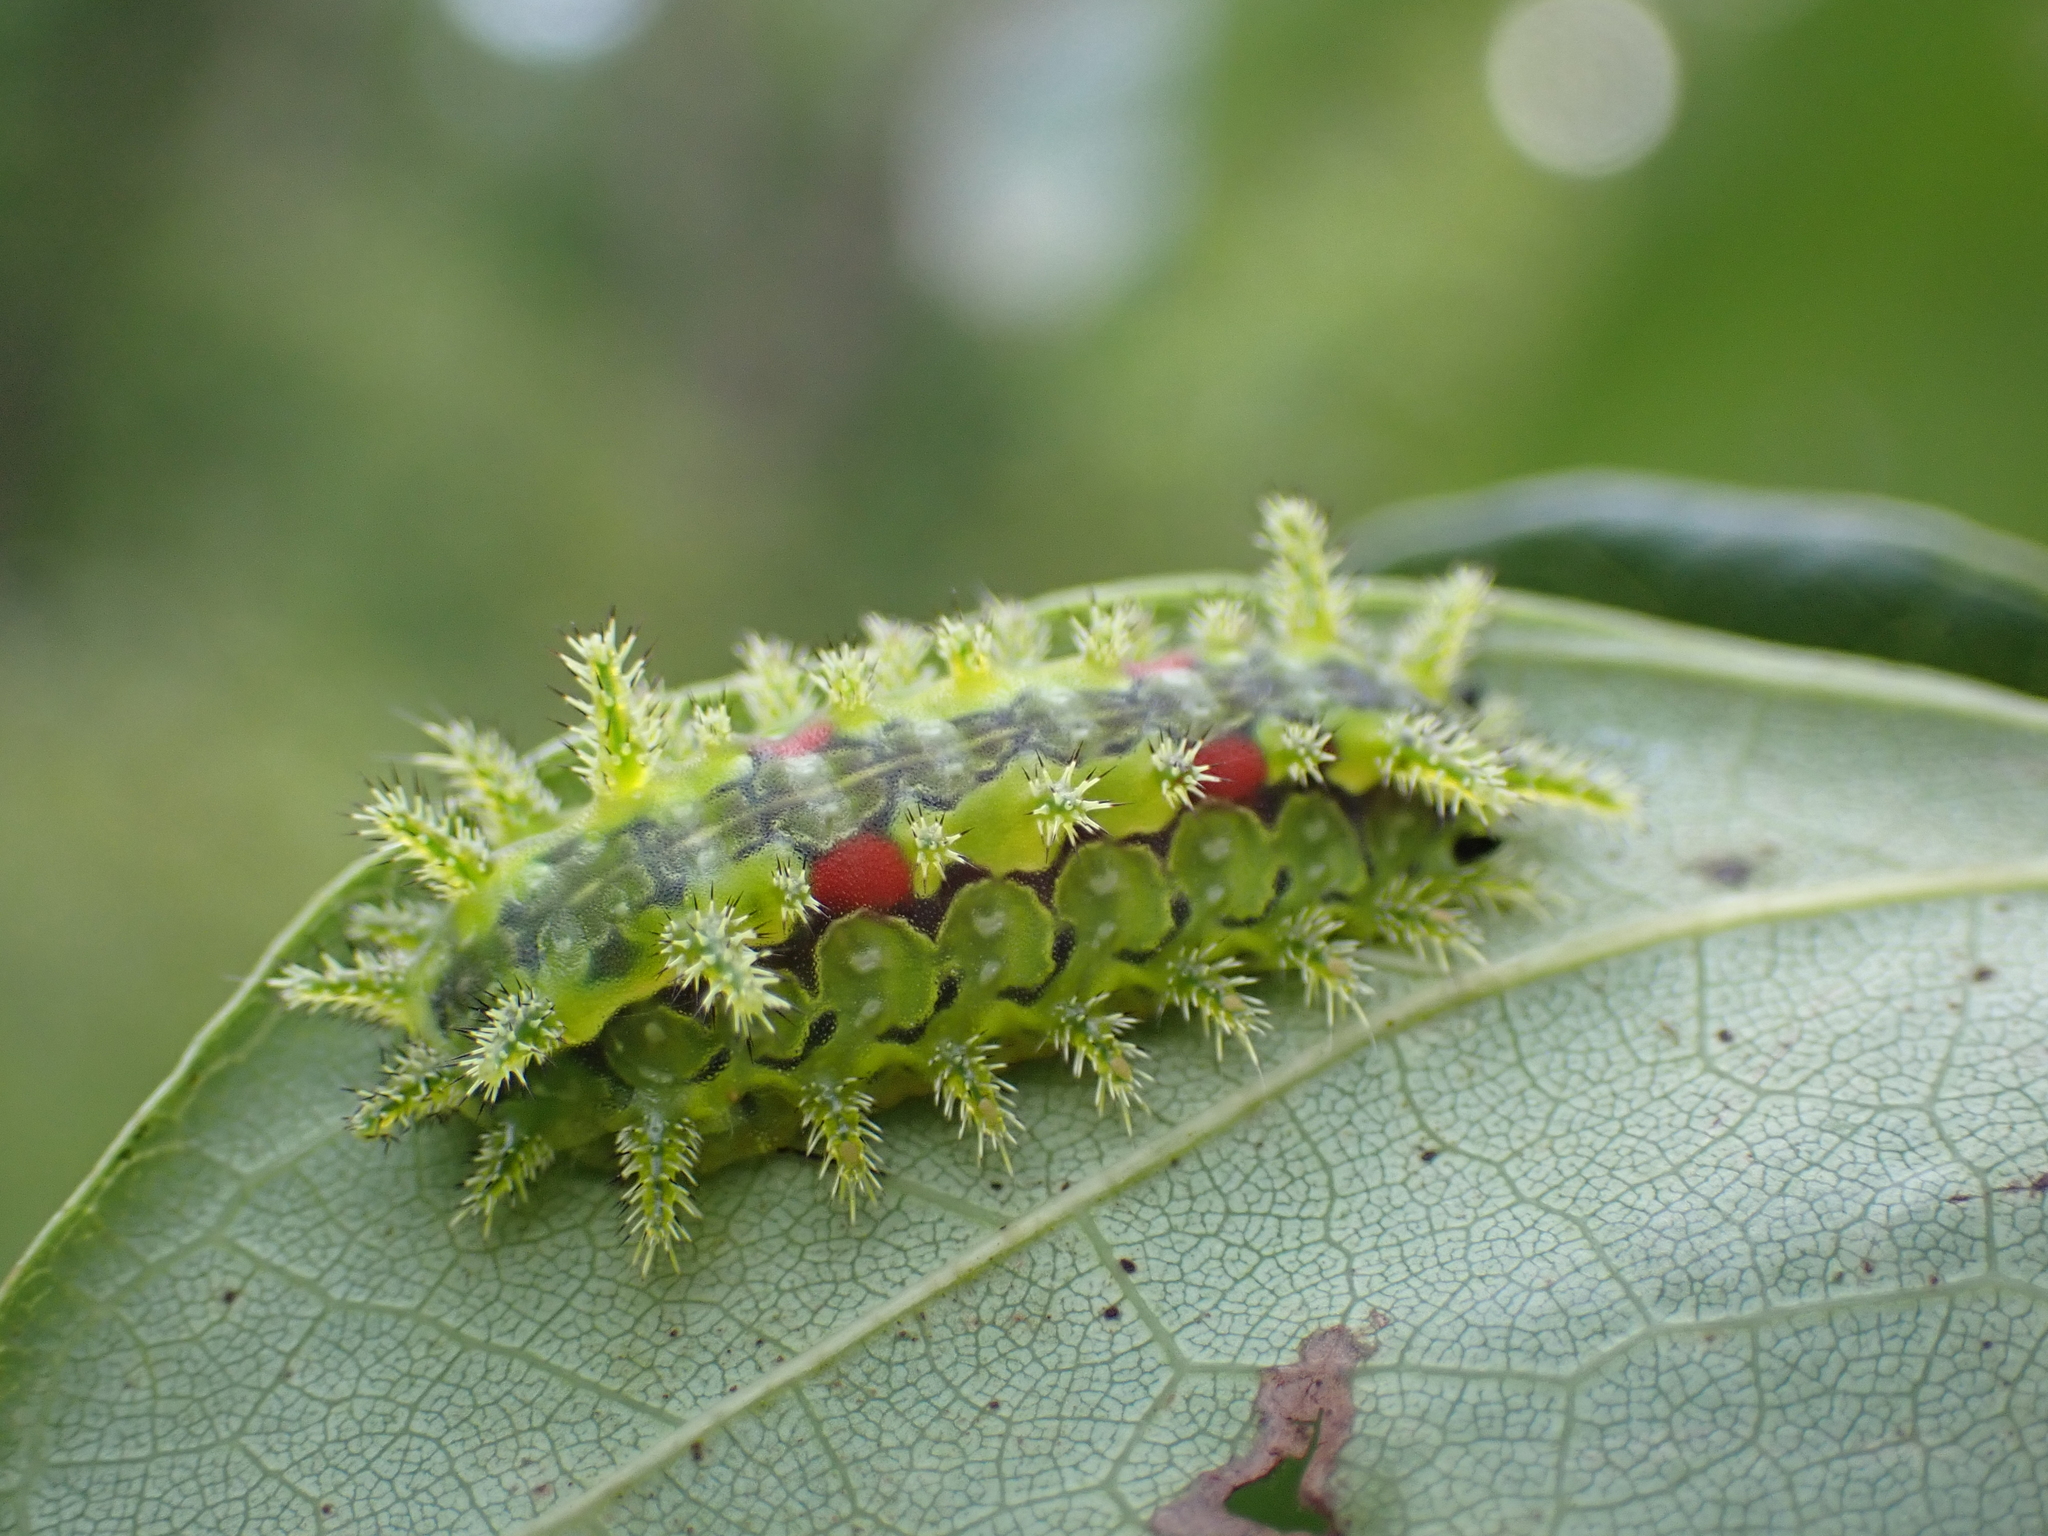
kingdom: Animalia
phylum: Arthropoda
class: Insecta
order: Lepidoptera
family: Limacodidae
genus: Euclea
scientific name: Euclea delphinii
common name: Spiny oak-slug moth
